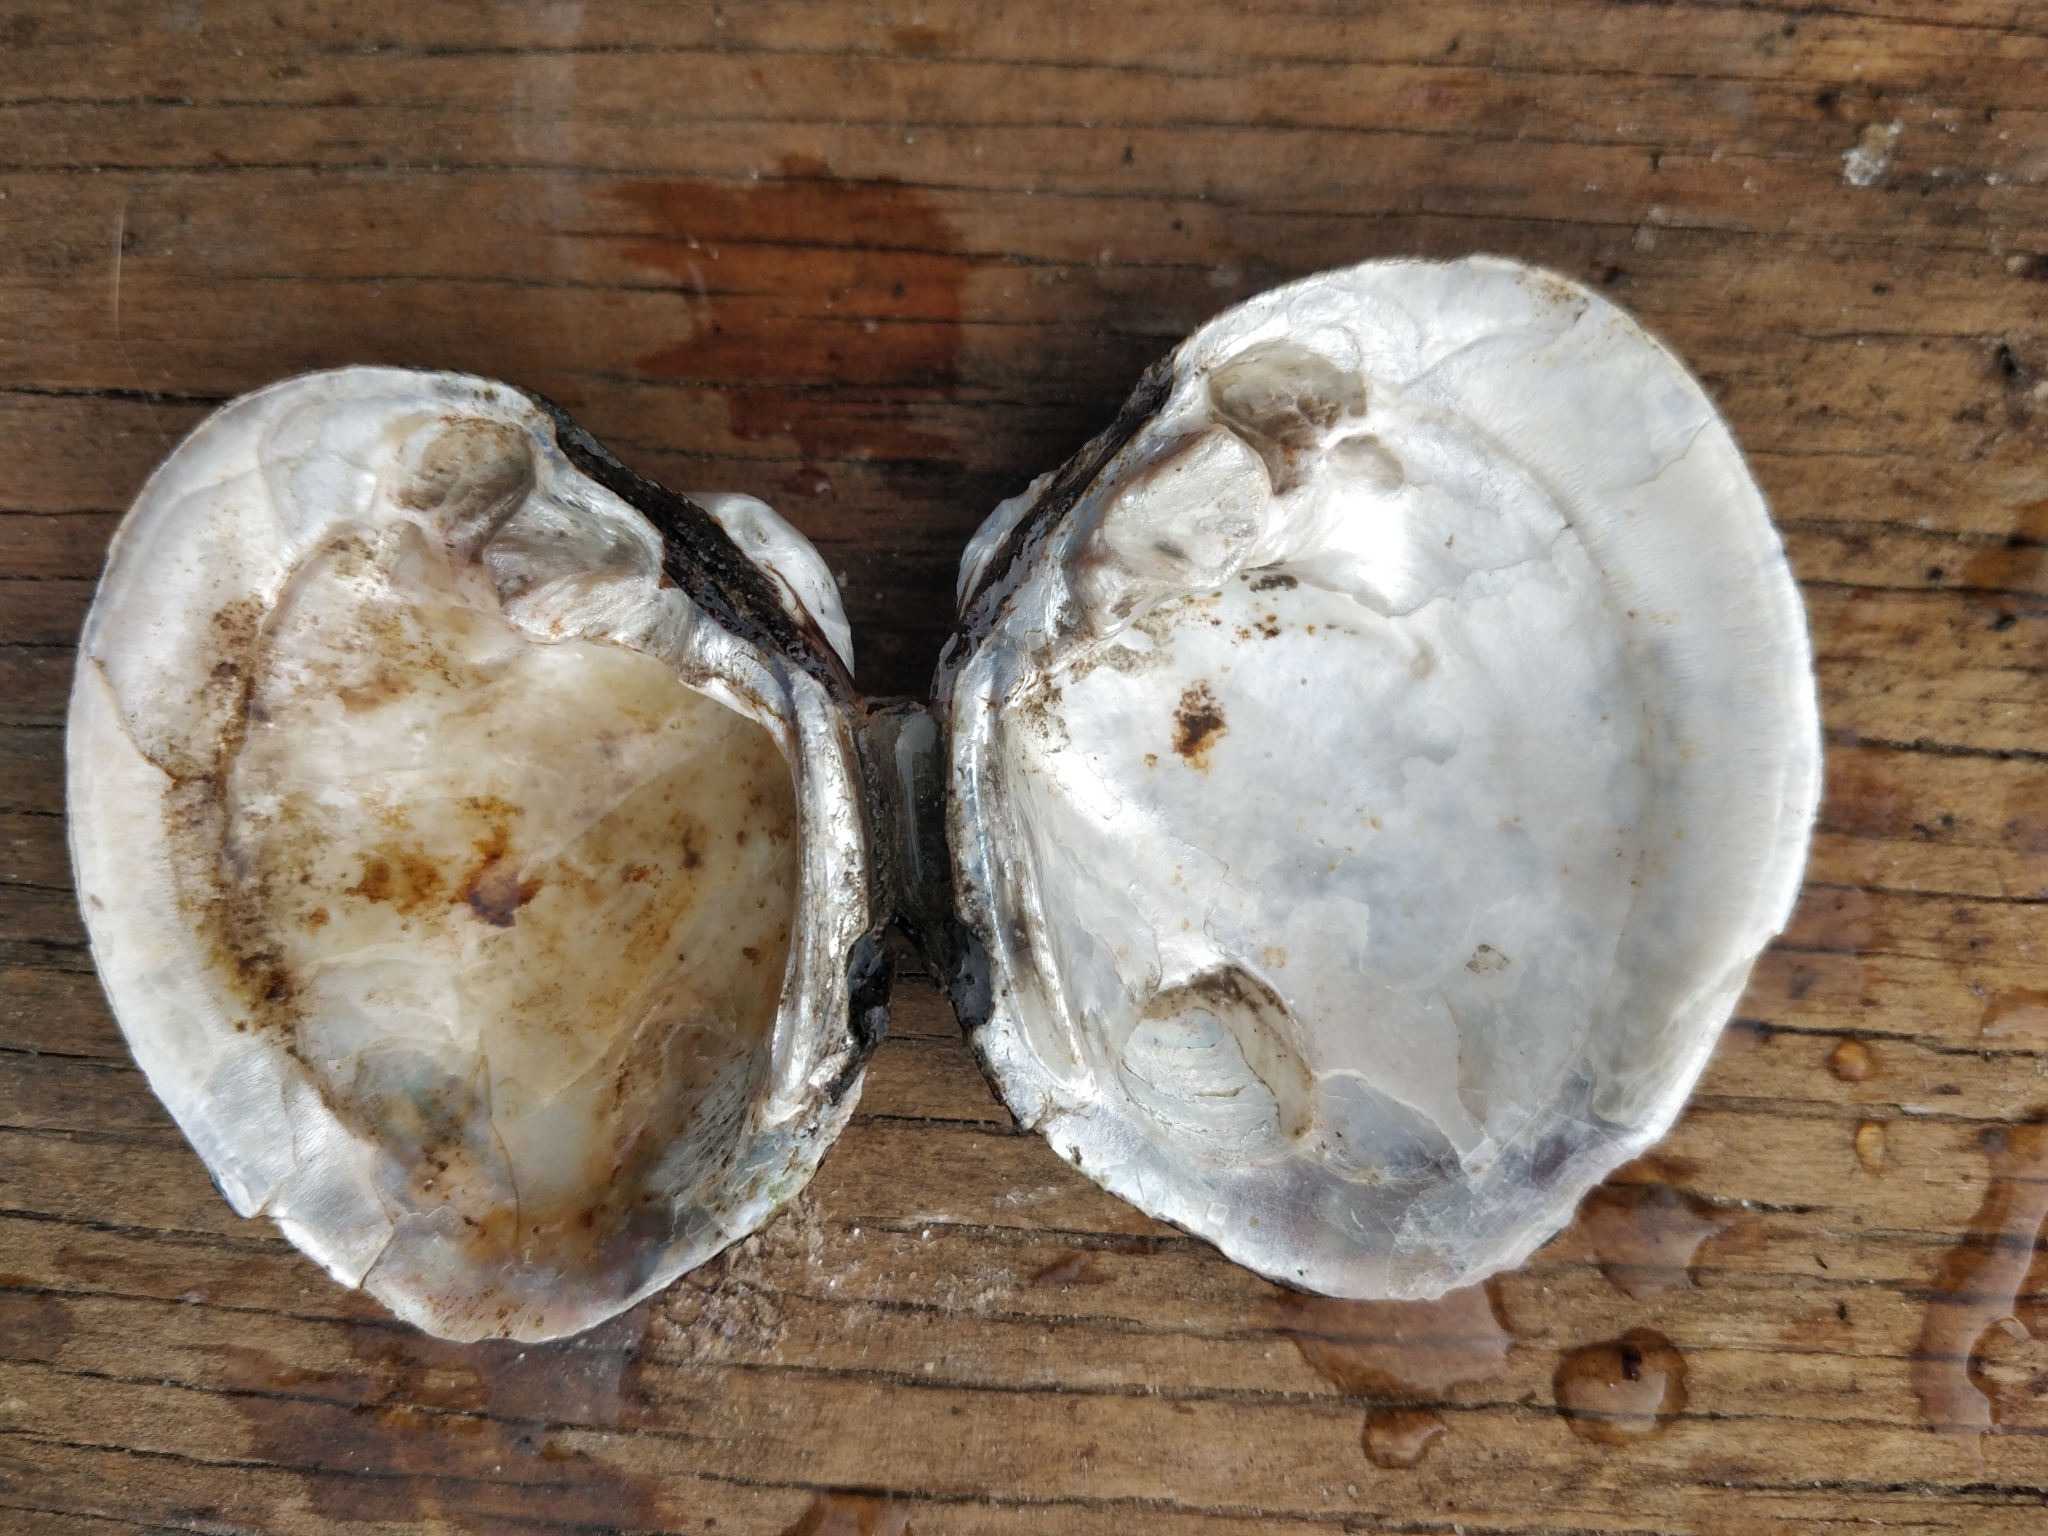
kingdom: Animalia
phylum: Mollusca
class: Bivalvia
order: Unionida
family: Unionidae
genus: Cyclonaias
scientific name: Cyclonaias pustulosa
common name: Pimpleback
